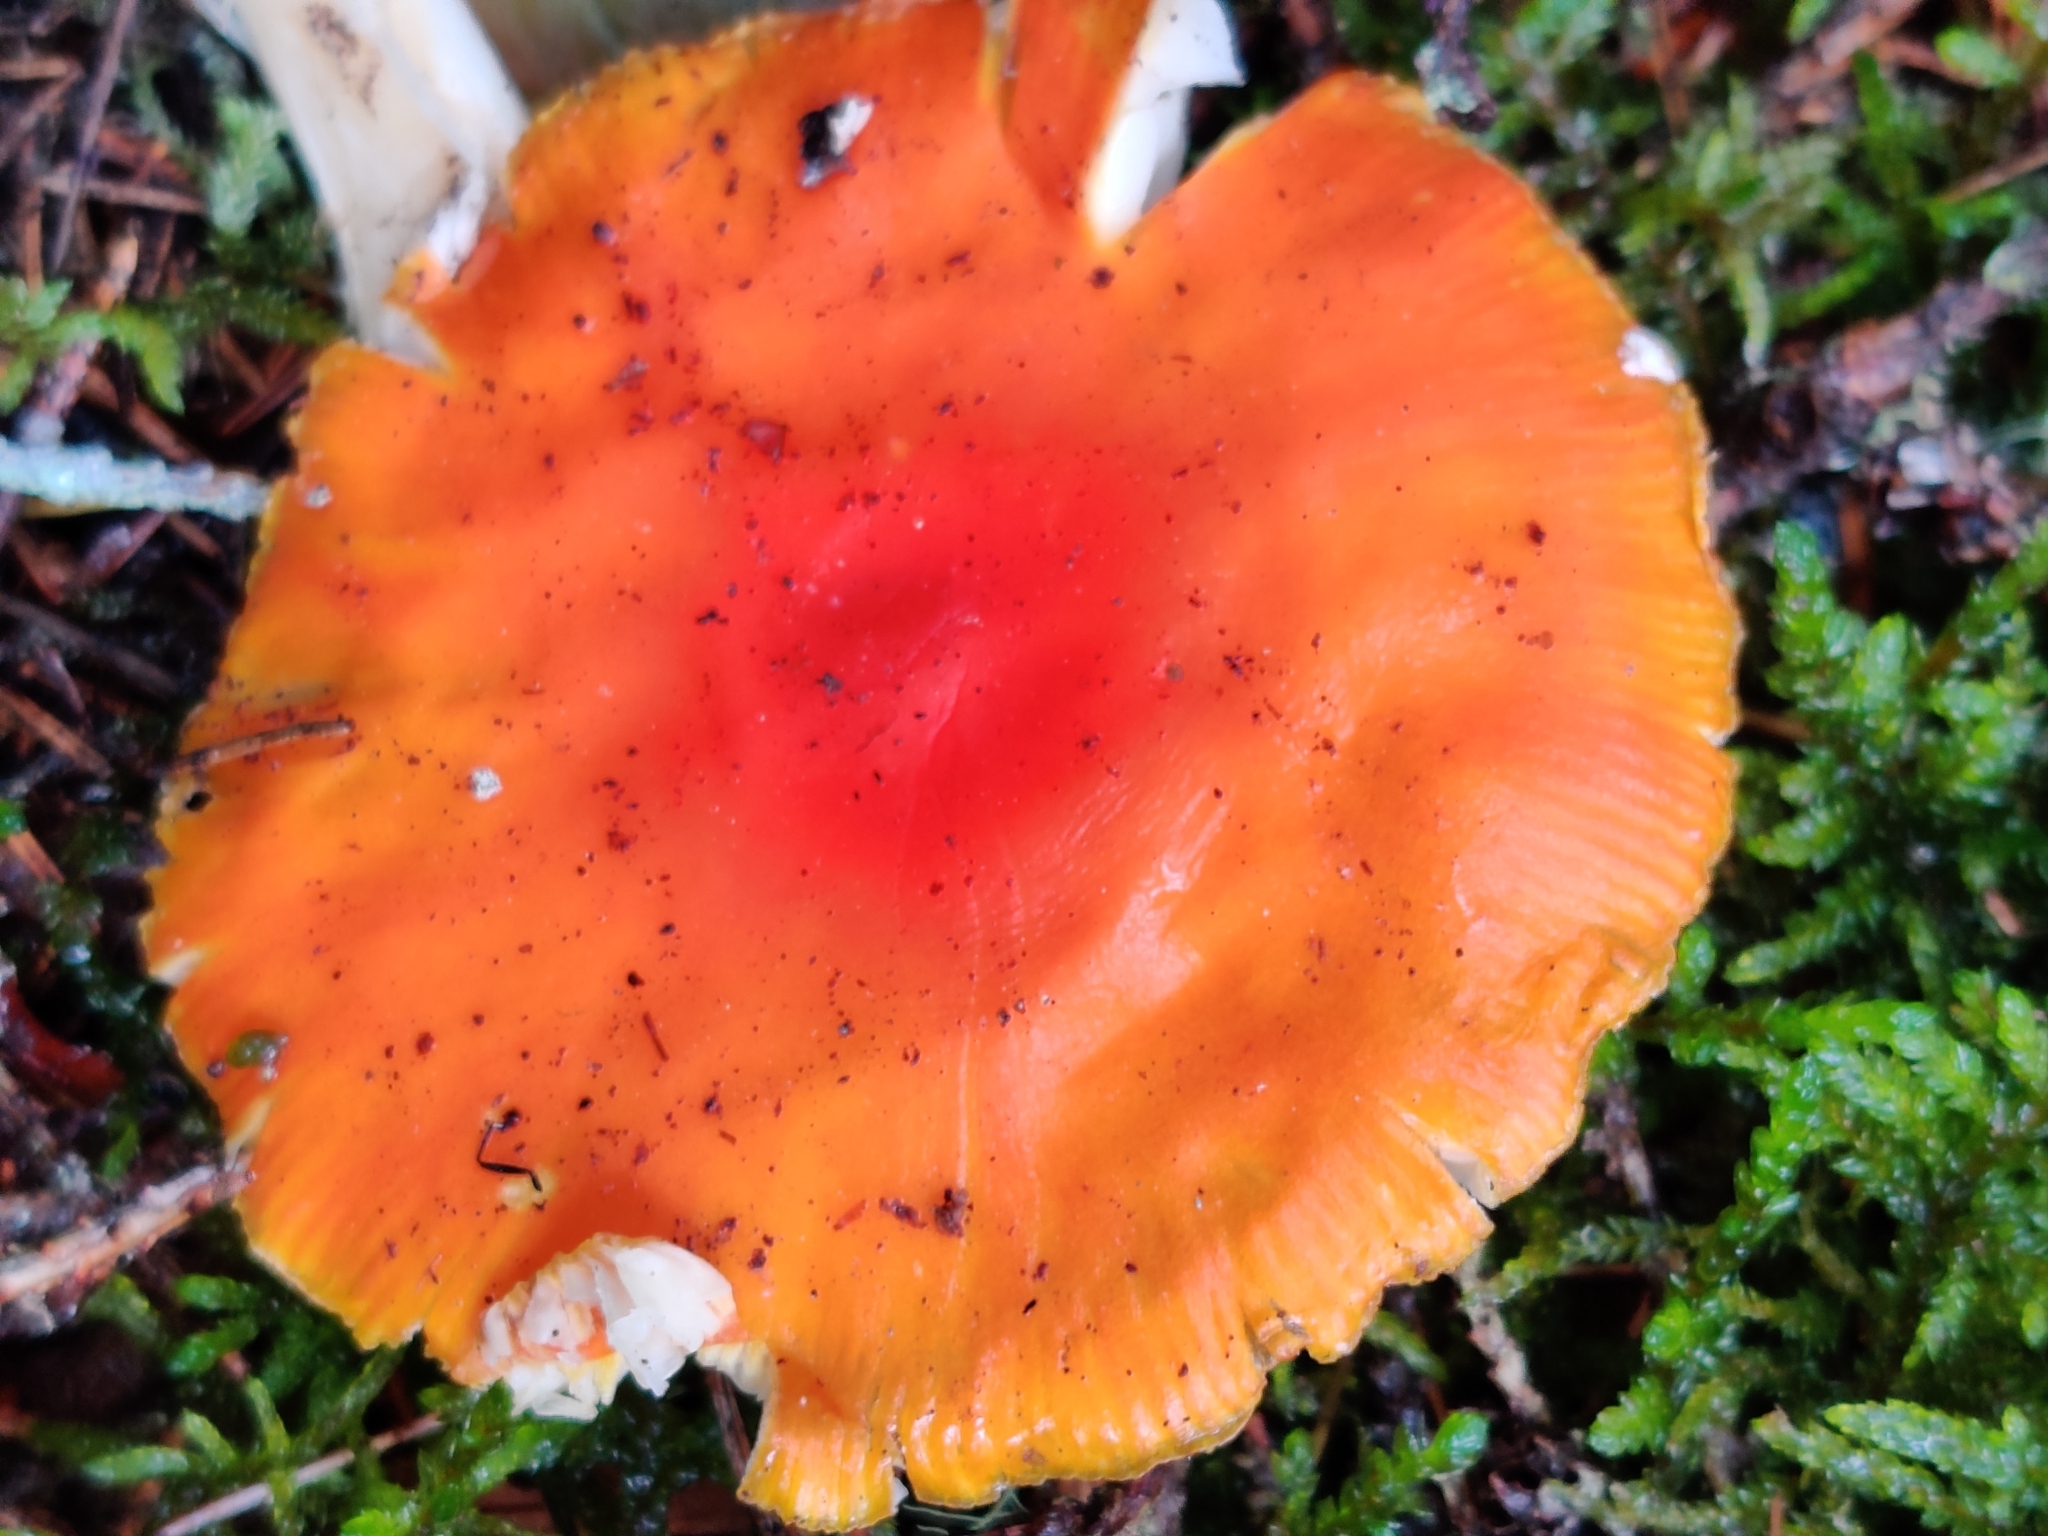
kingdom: Fungi
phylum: Basidiomycota
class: Agaricomycetes
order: Agaricales
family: Amanitaceae
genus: Amanita
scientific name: Amanita muscaria
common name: Fly agaric
